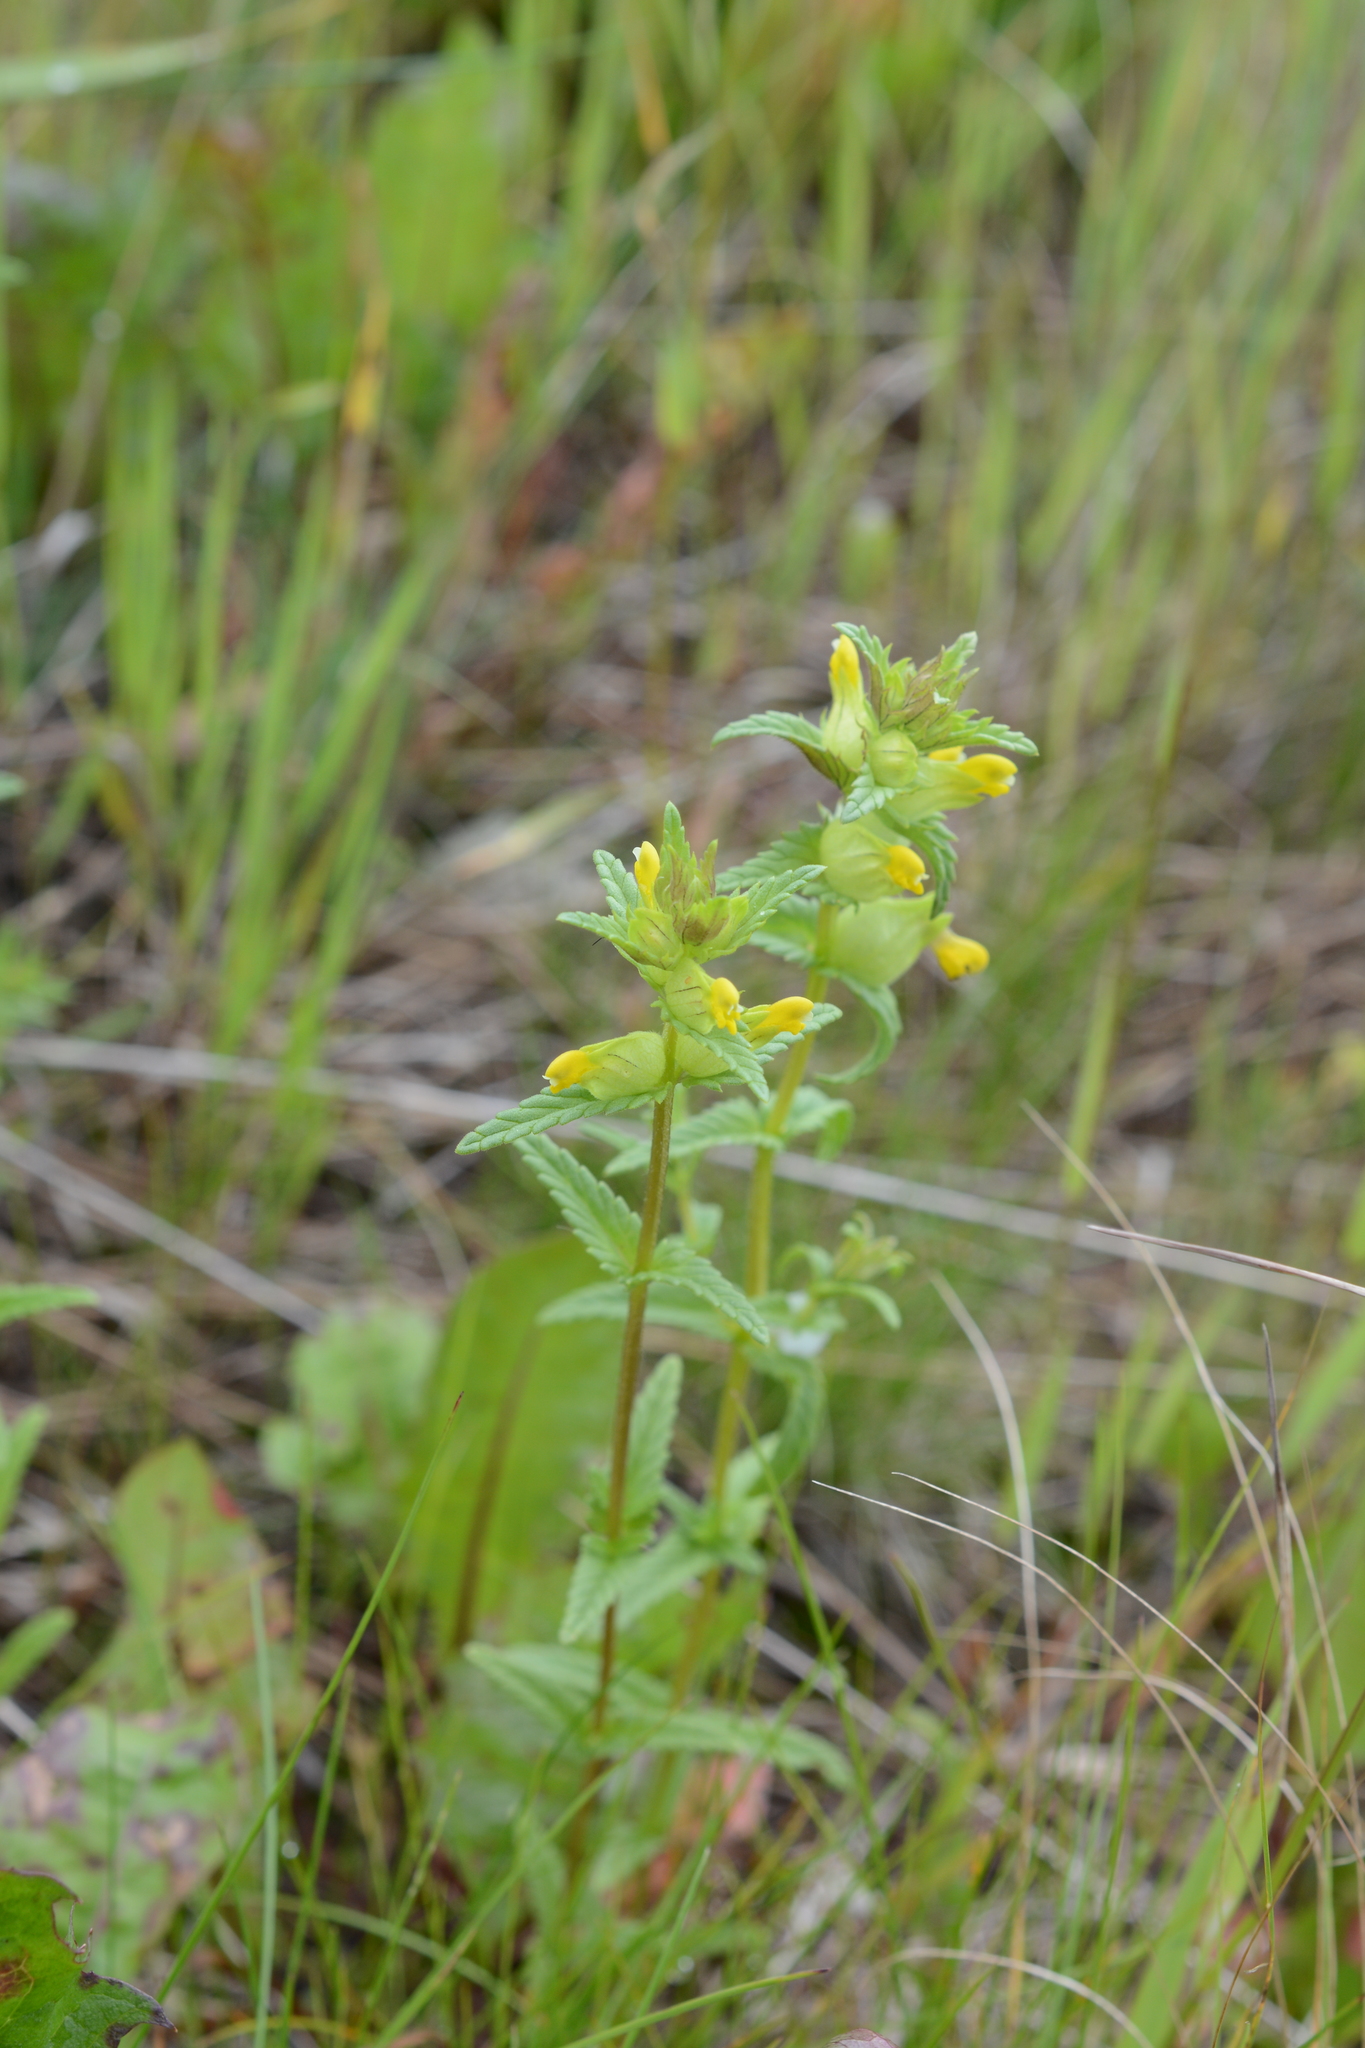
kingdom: Plantae
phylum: Tracheophyta
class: Magnoliopsida
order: Lamiales
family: Orobanchaceae
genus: Rhinanthus
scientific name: Rhinanthus groenlandicus
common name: Little yellow rattle
